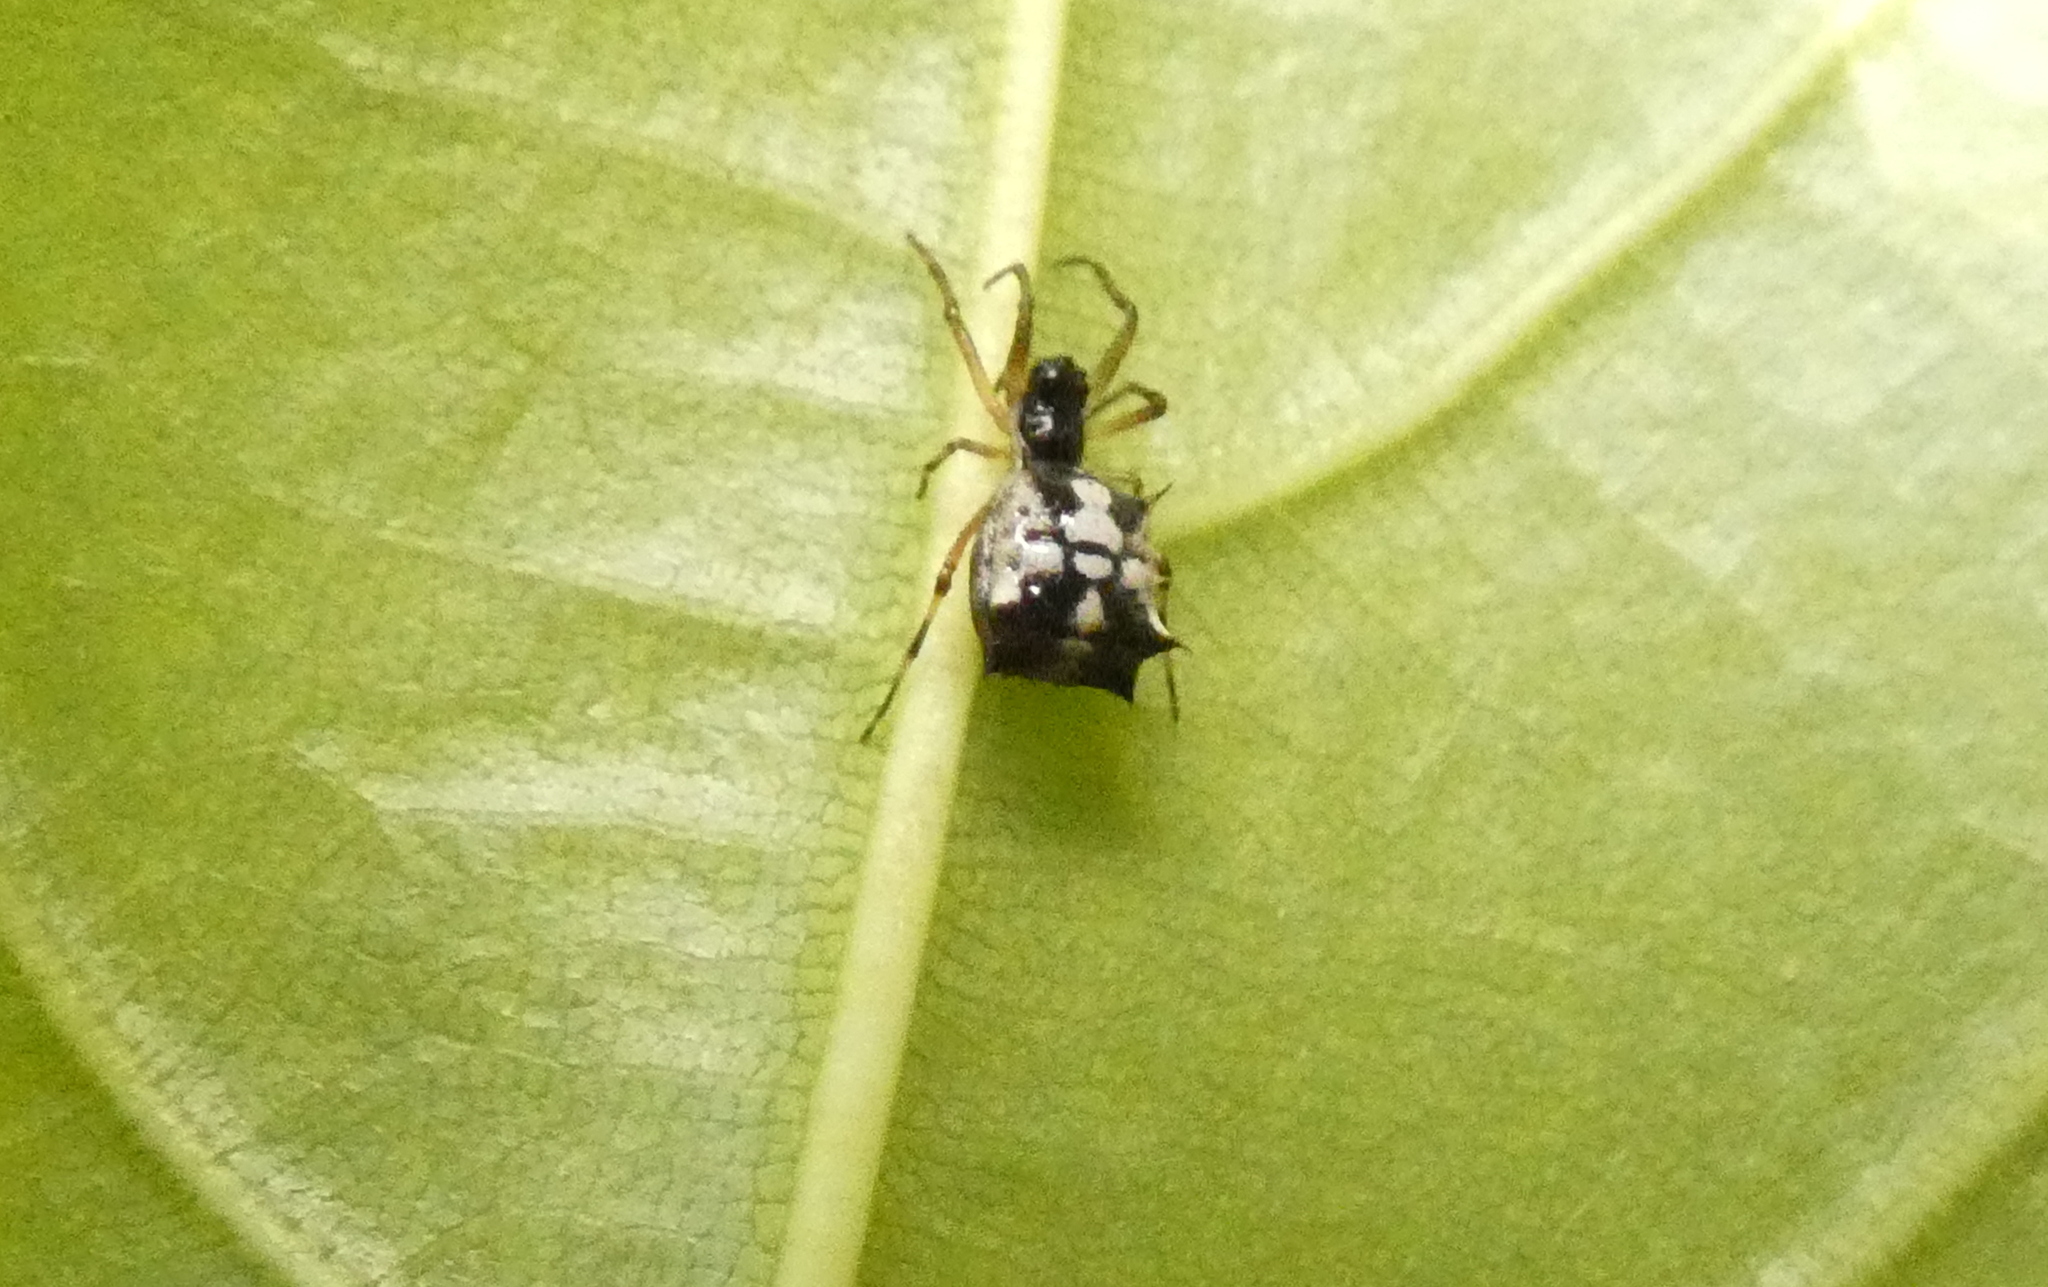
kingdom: Animalia
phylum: Arthropoda
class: Arachnida
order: Araneae
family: Araneidae
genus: Micrathena
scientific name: Micrathena picta
